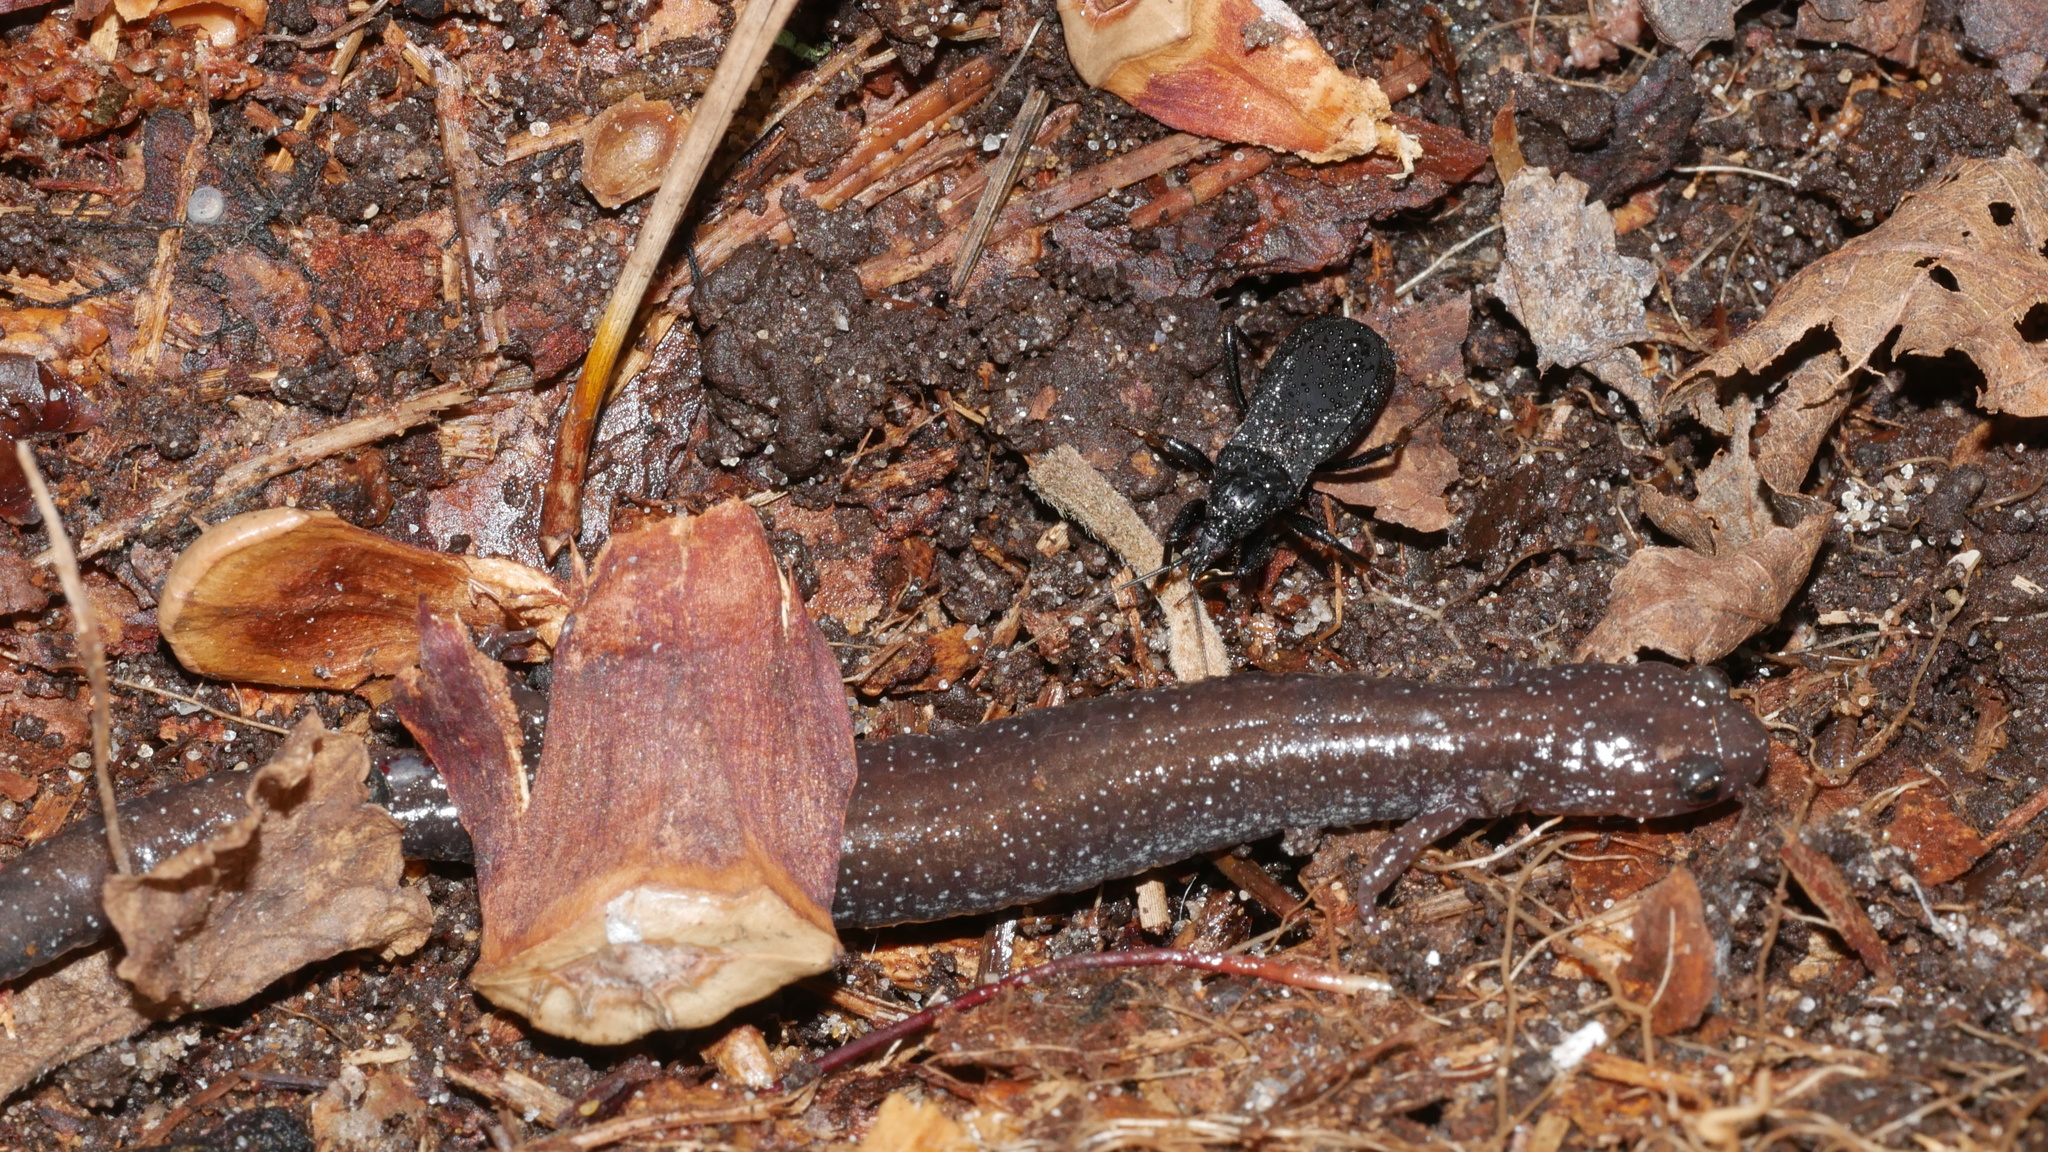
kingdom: Animalia
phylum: Arthropoda
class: Insecta
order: Hemiptera
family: Reduviidae
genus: Melanolestes
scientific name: Melanolestes picipes
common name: Assassin bug
